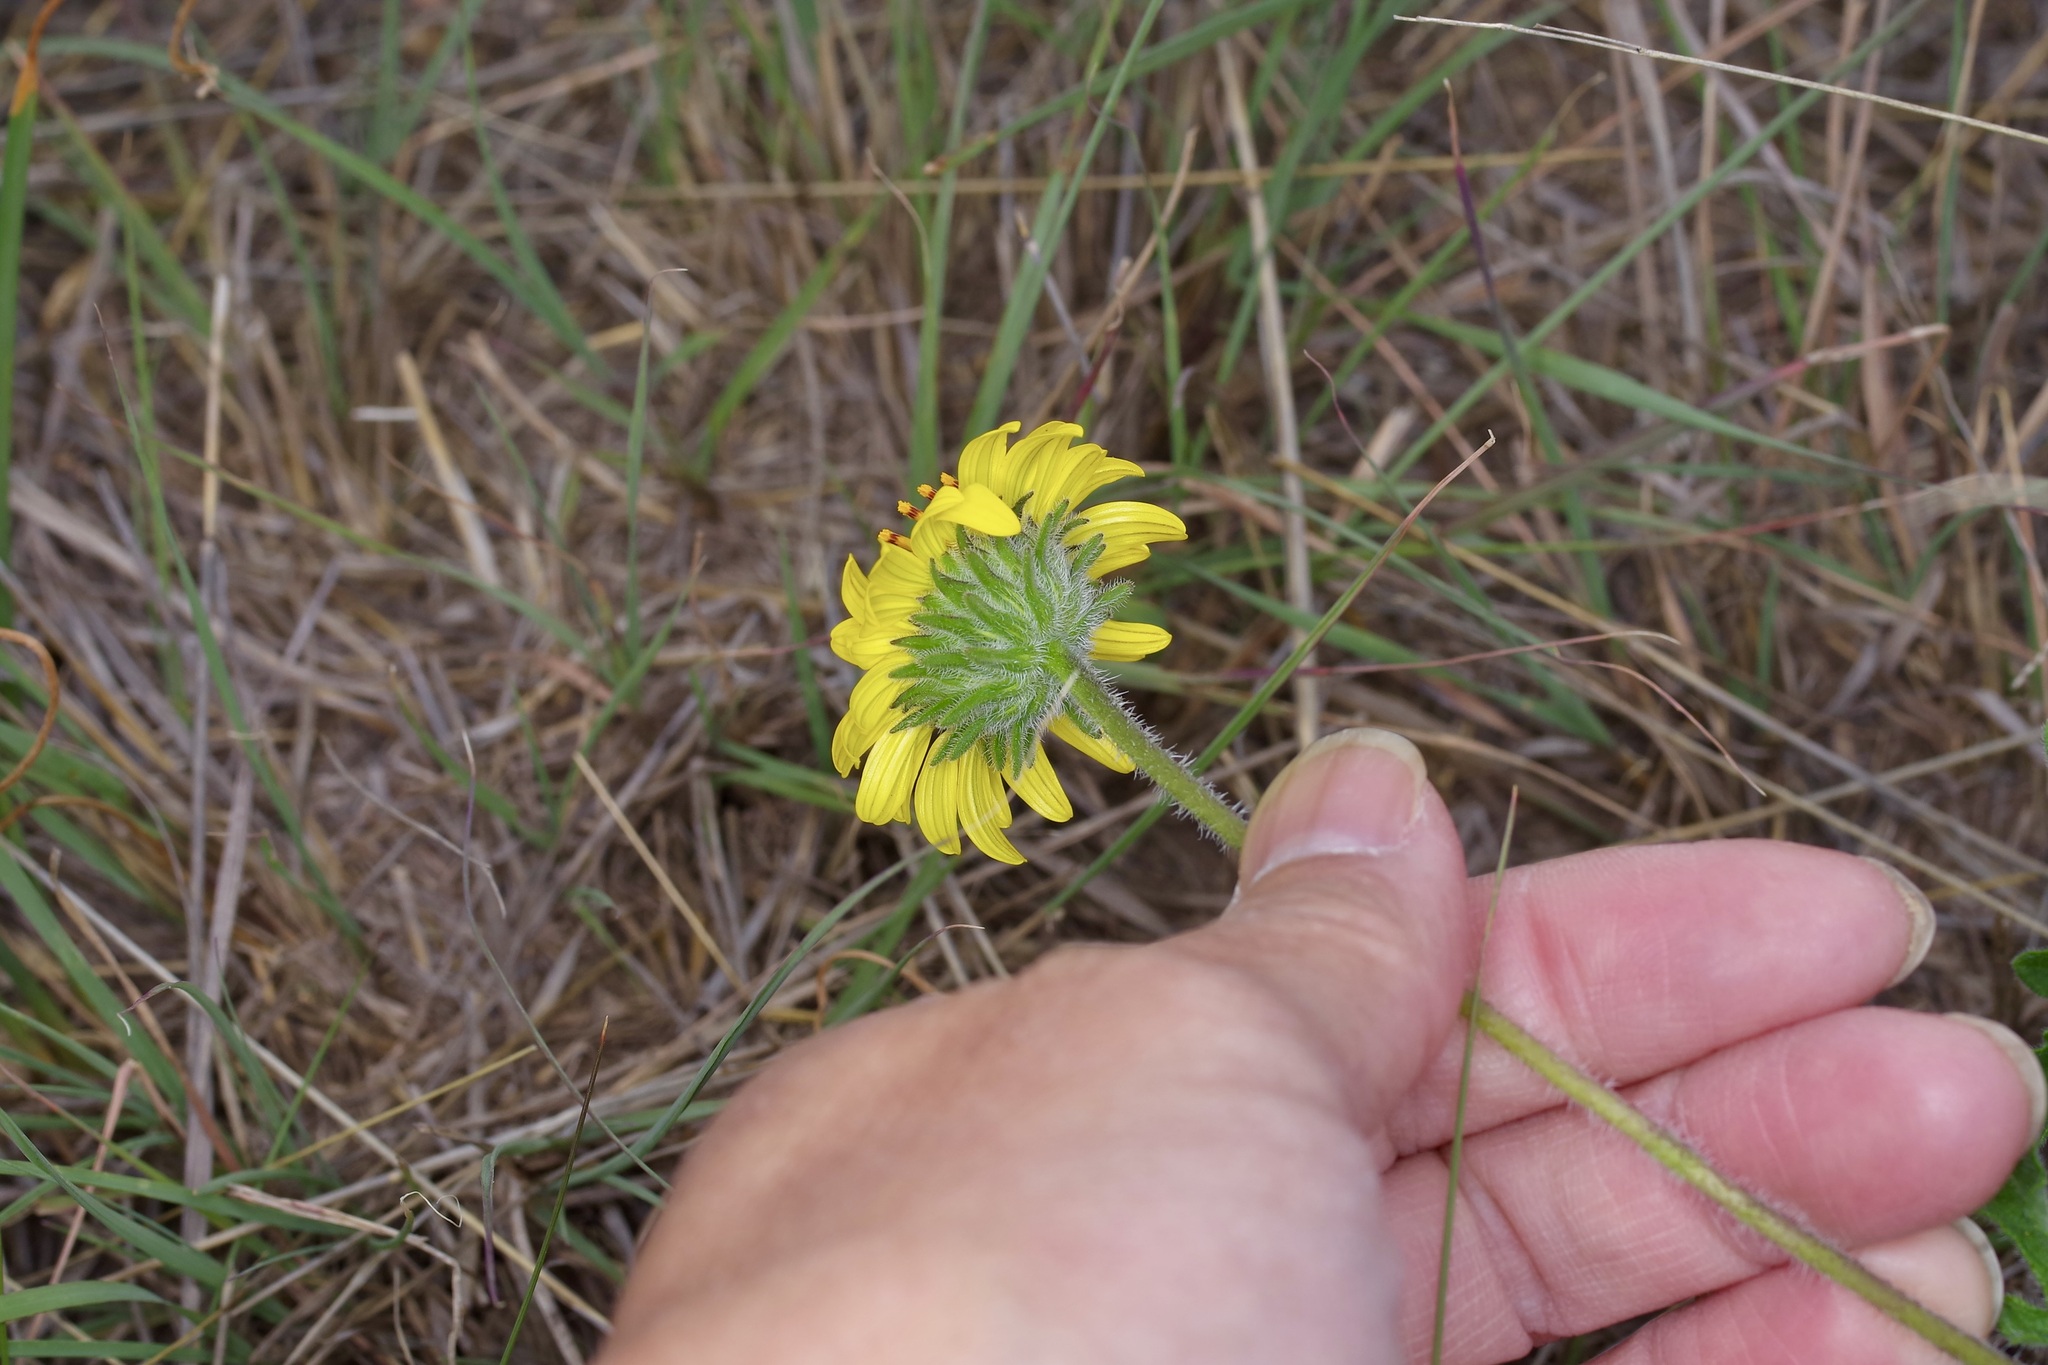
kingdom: Plantae
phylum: Tracheophyta
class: Magnoliopsida
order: Asterales
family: Asteraceae
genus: Simsia
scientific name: Simsia calva
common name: Awnless bush-sunflower
